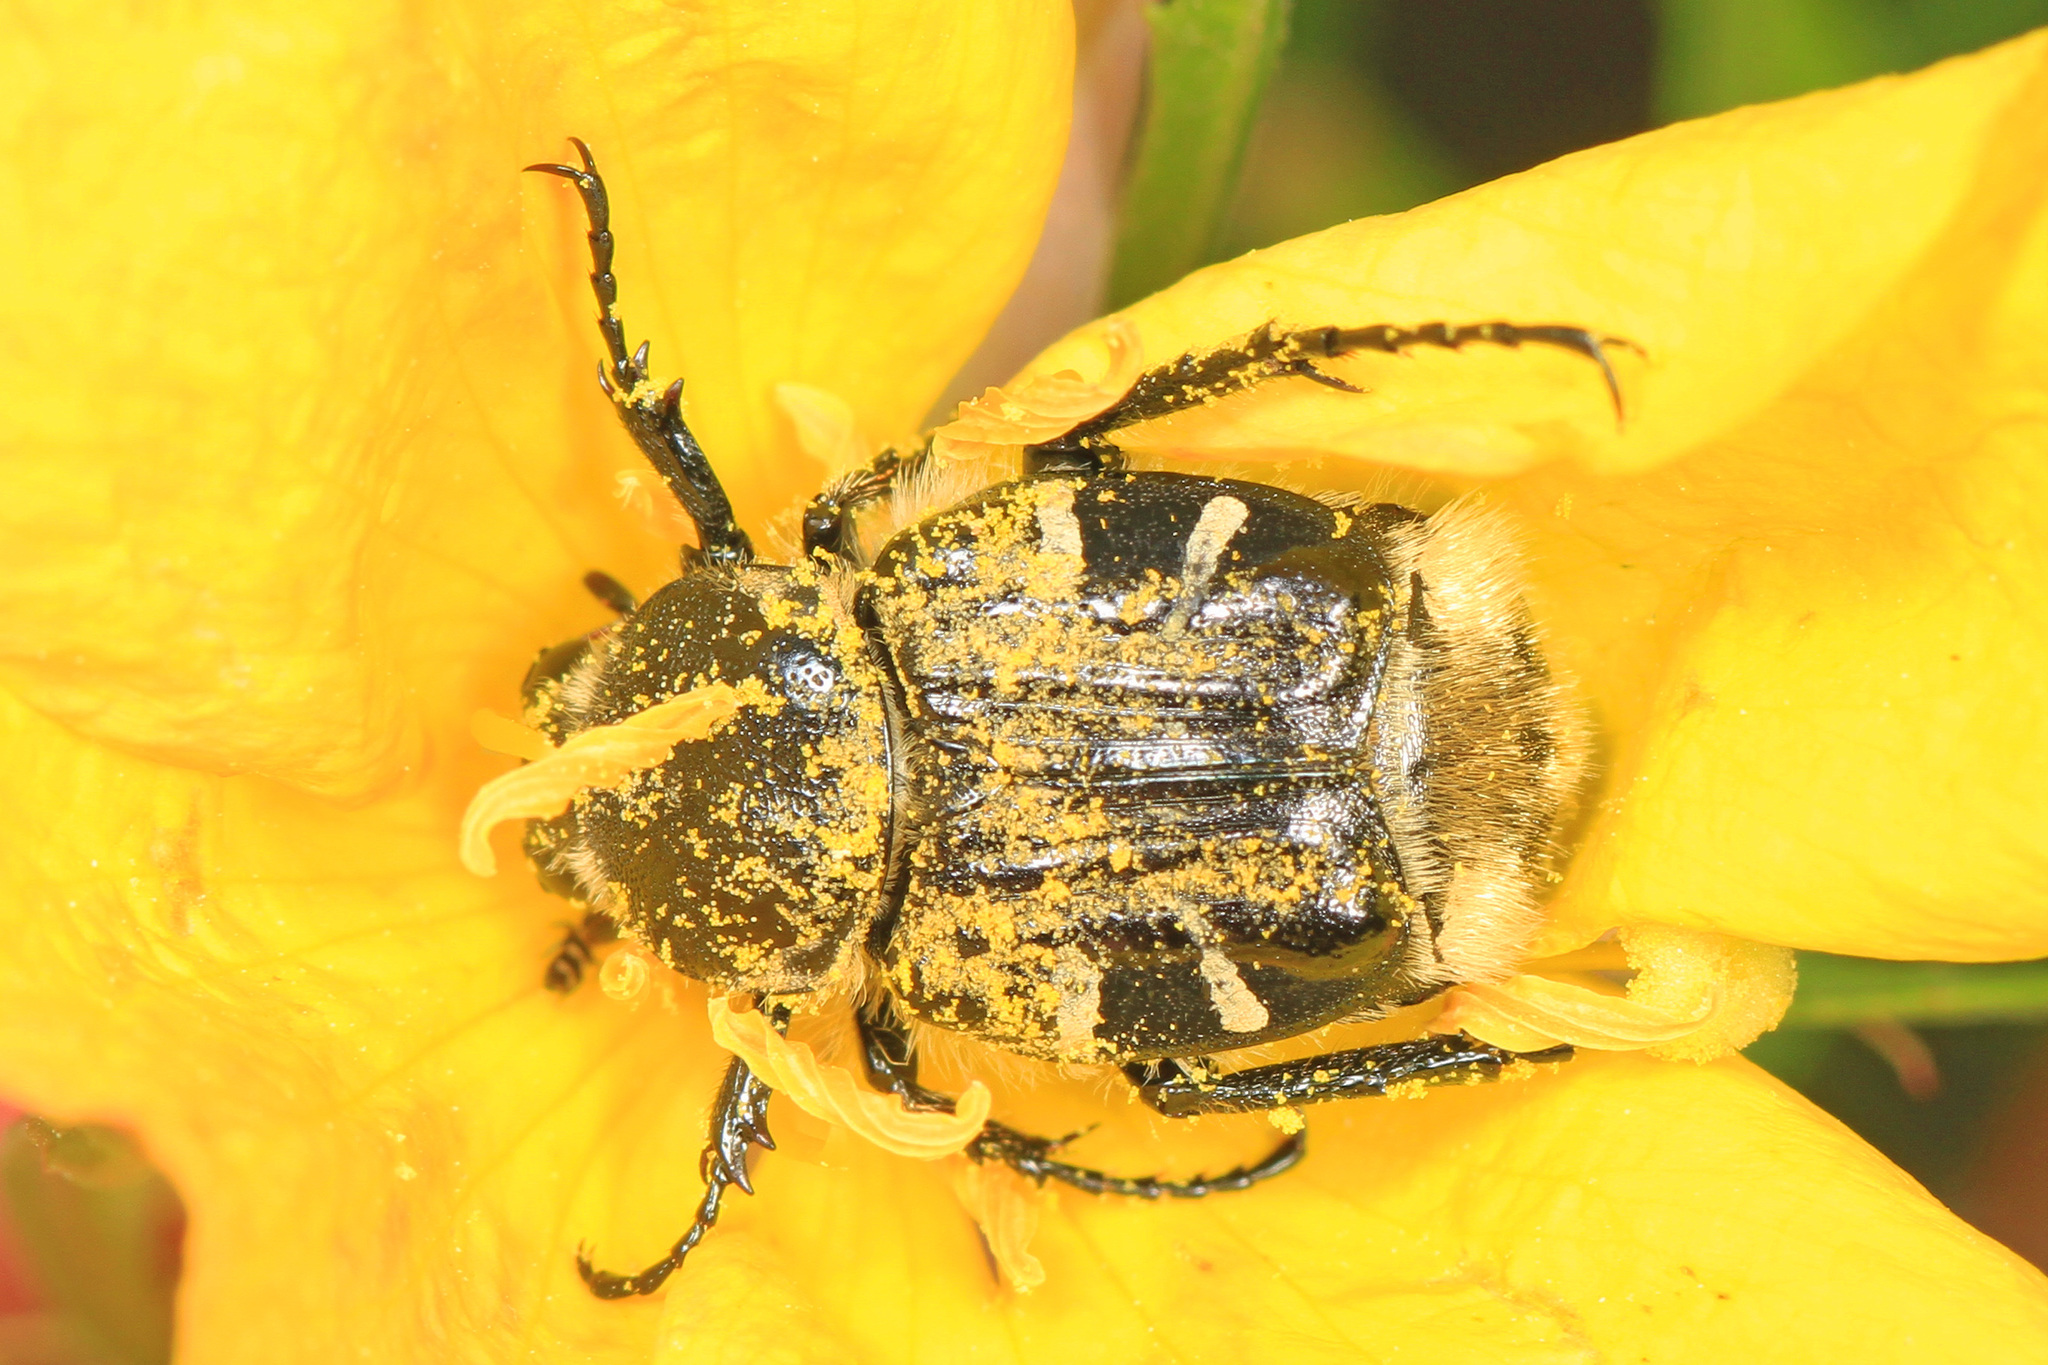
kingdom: Animalia
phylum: Arthropoda
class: Insecta
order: Coleoptera
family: Scarabaeidae
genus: Trichiotinus
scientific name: Trichiotinus texanus
